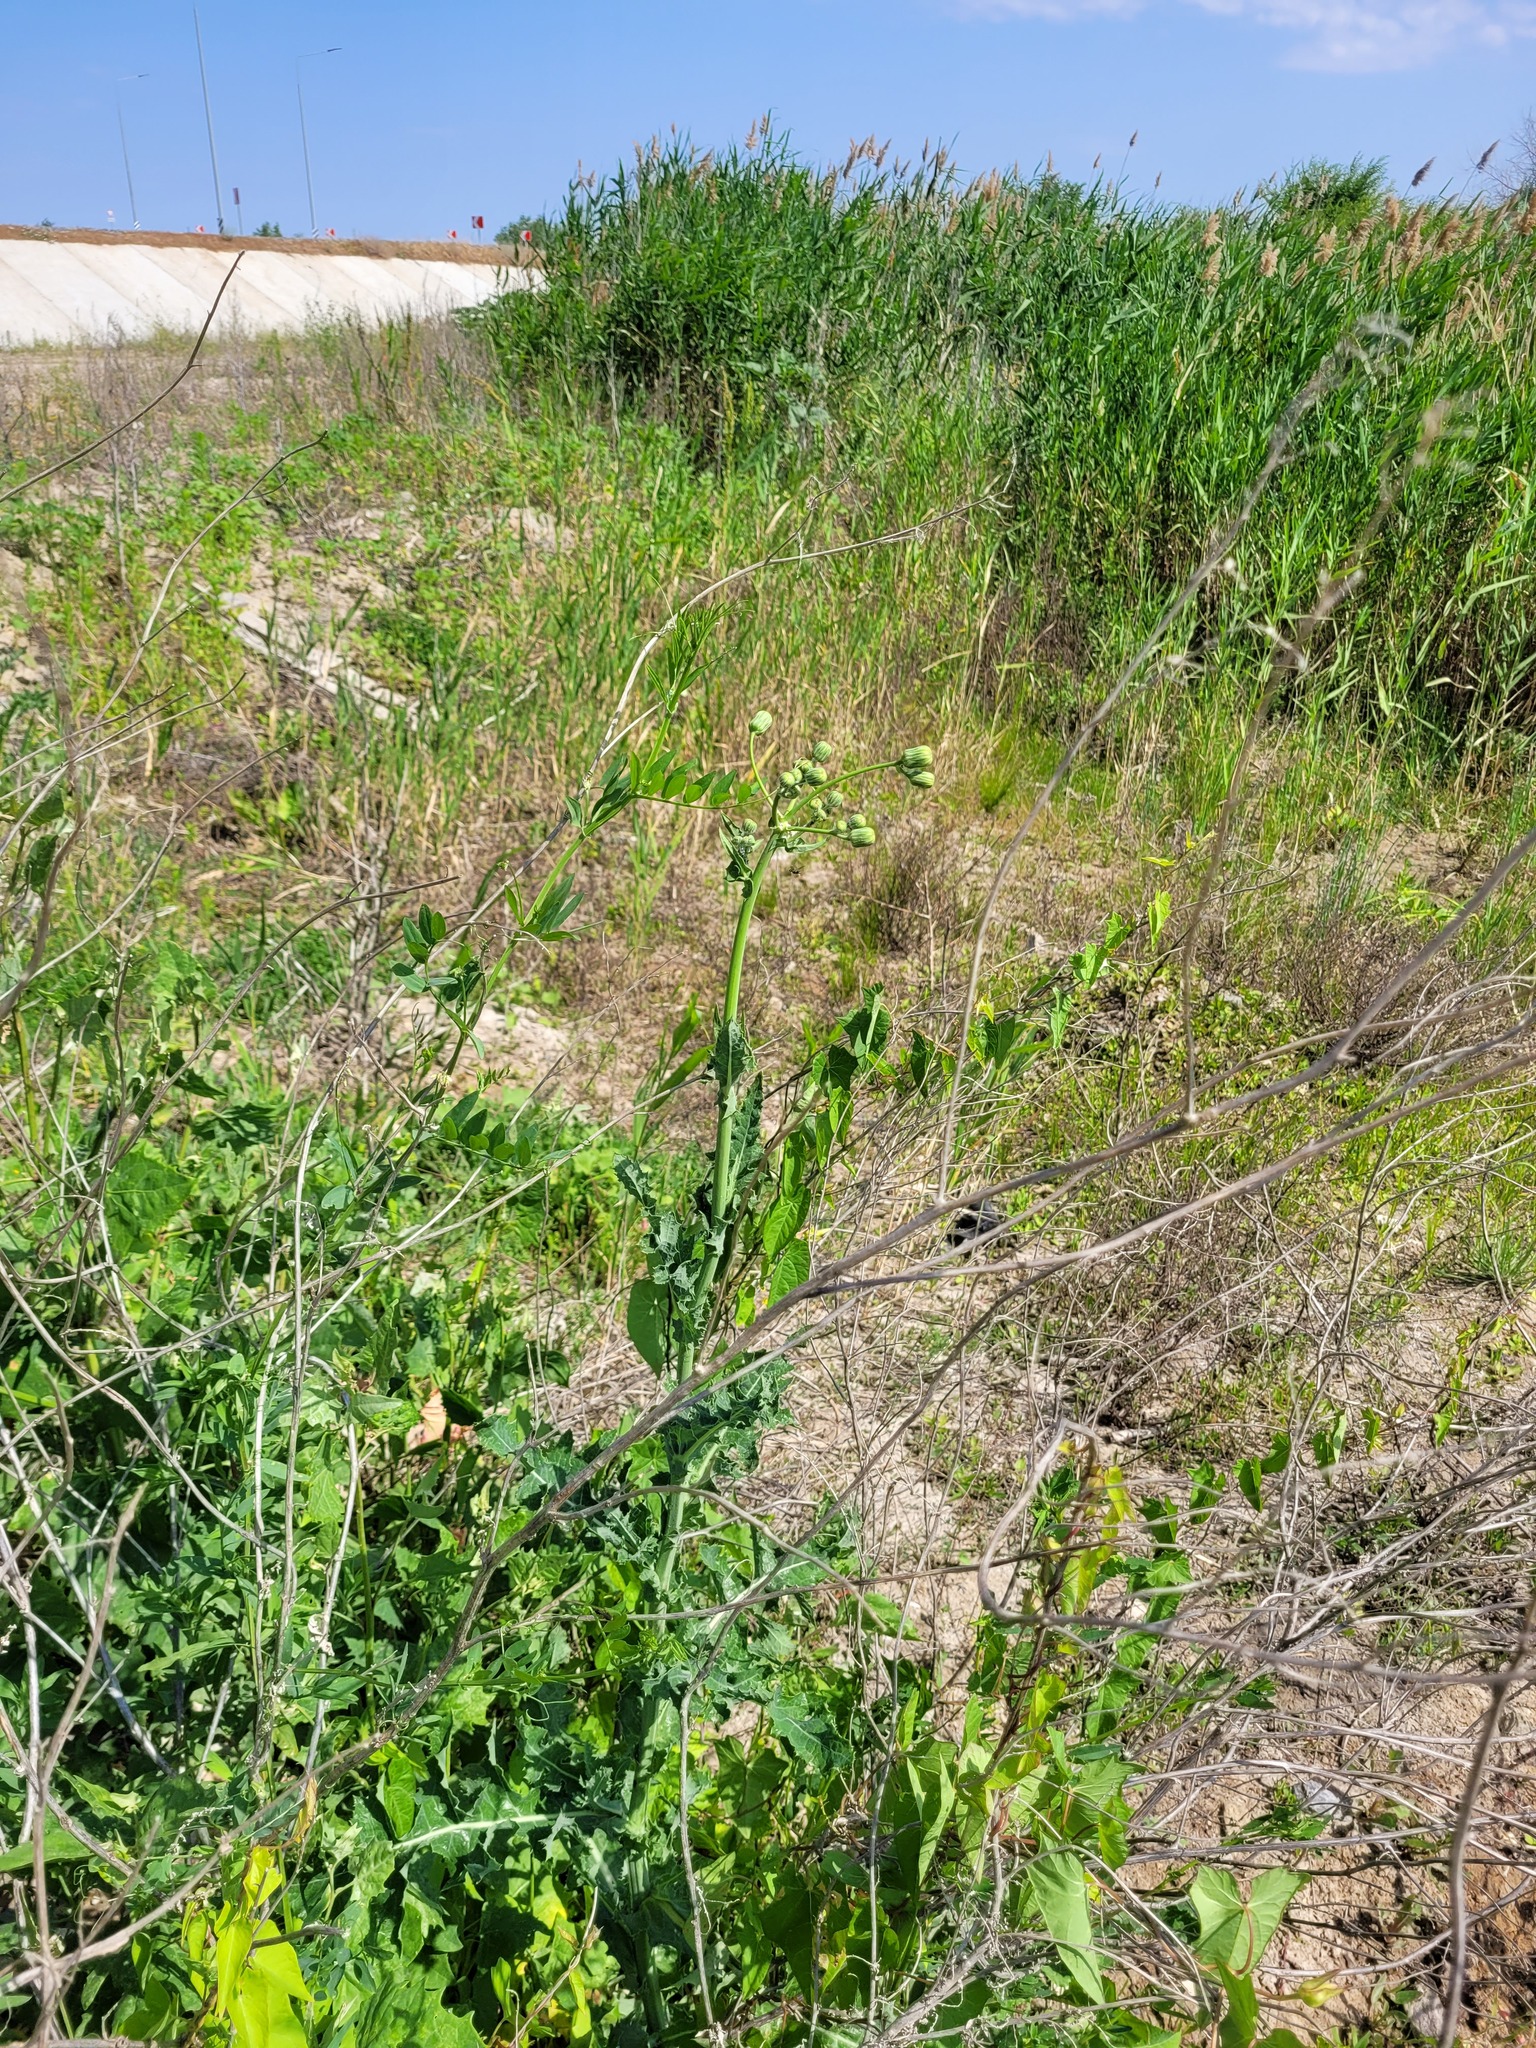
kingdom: Plantae
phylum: Tracheophyta
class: Magnoliopsida
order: Asterales
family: Asteraceae
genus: Sonchus
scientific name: Sonchus arvensis
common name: Perennial sow-thistle
